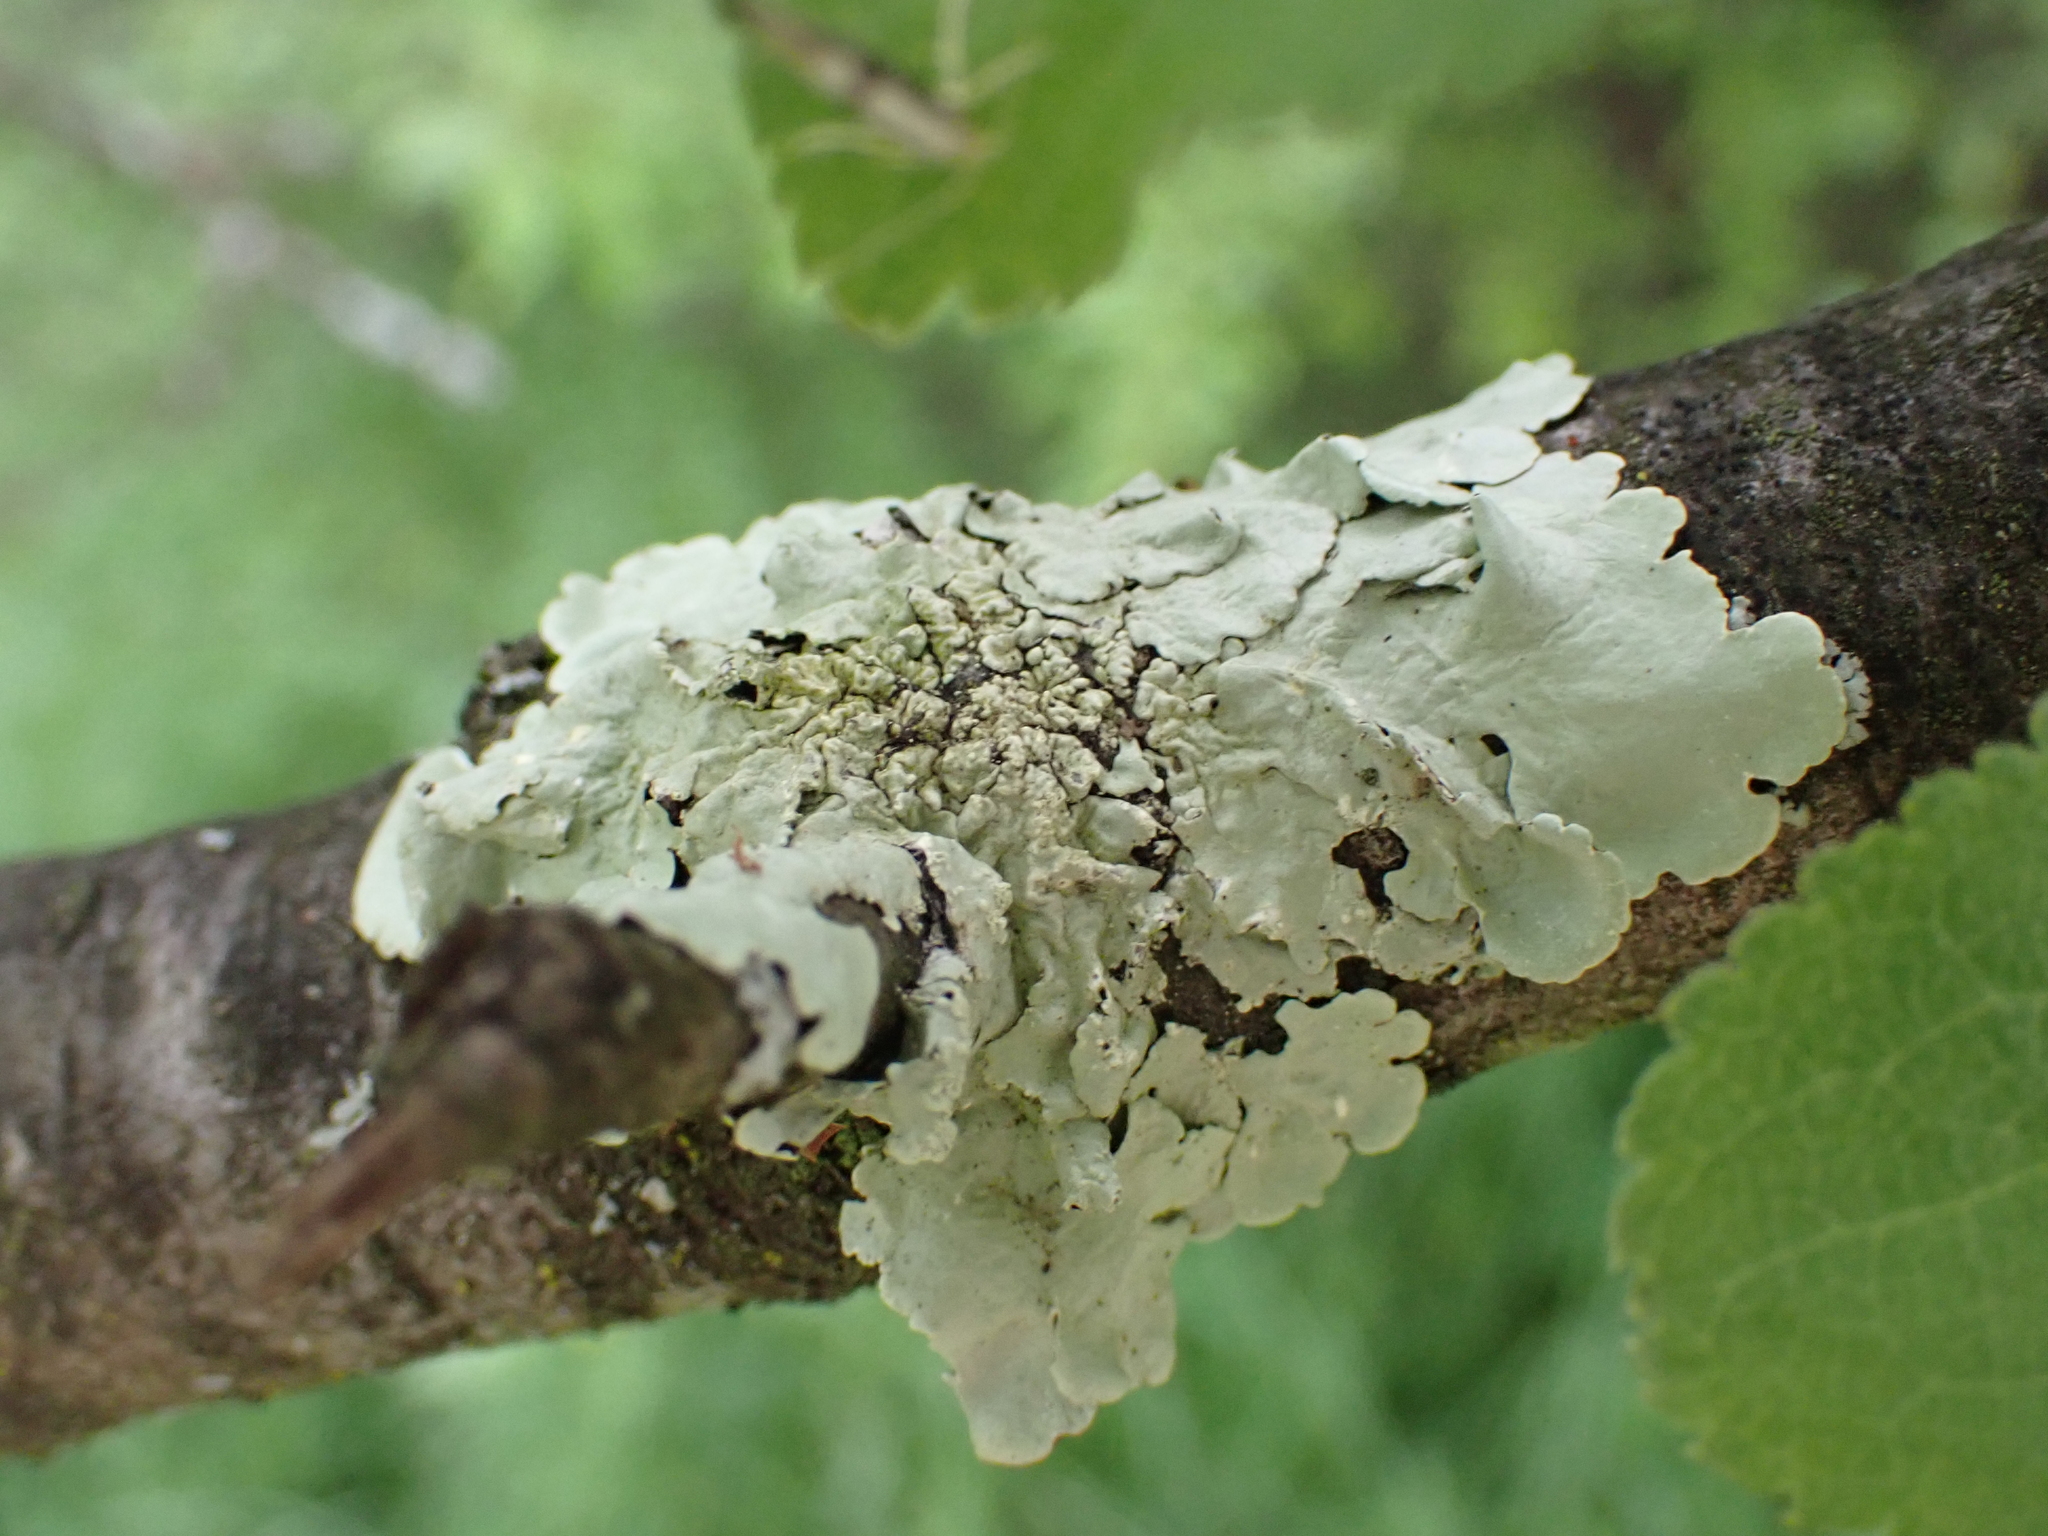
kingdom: Fungi
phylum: Ascomycota
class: Lecanoromycetes
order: Lecanorales
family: Parmeliaceae
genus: Flavoparmelia
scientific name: Flavoparmelia caperata
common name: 40-mile per hour lichen
